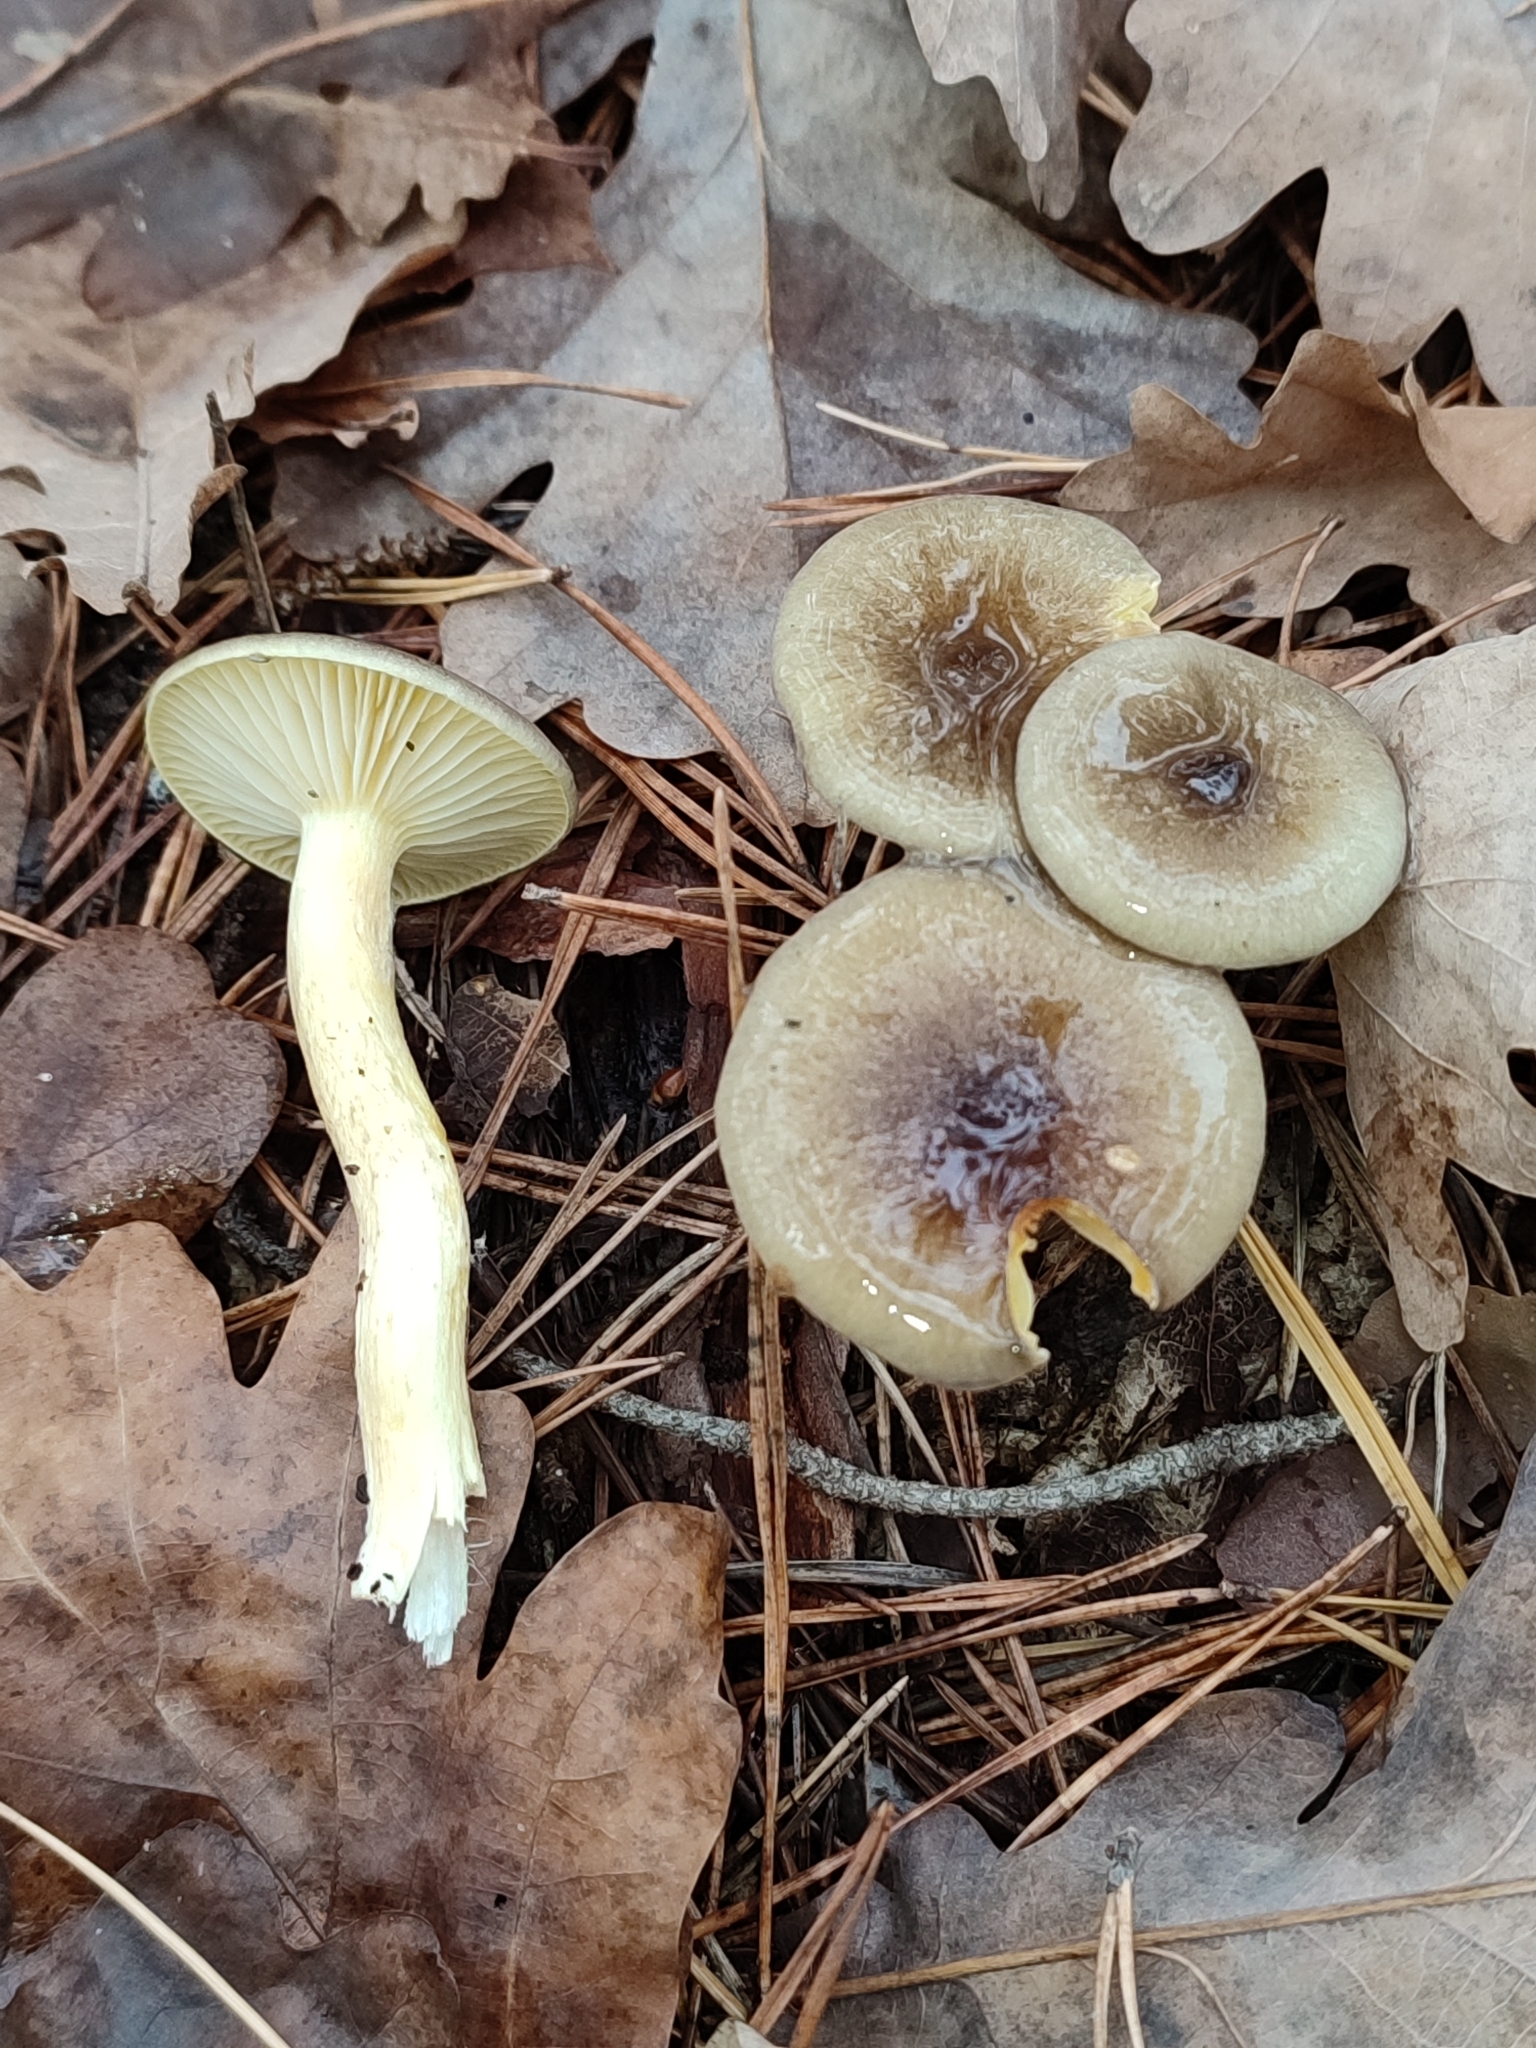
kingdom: Fungi
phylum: Basidiomycota
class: Agaricomycetes
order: Agaricales
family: Hygrophoraceae
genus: Hygrophorus
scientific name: Hygrophorus hypothejus
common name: Herald of winter
